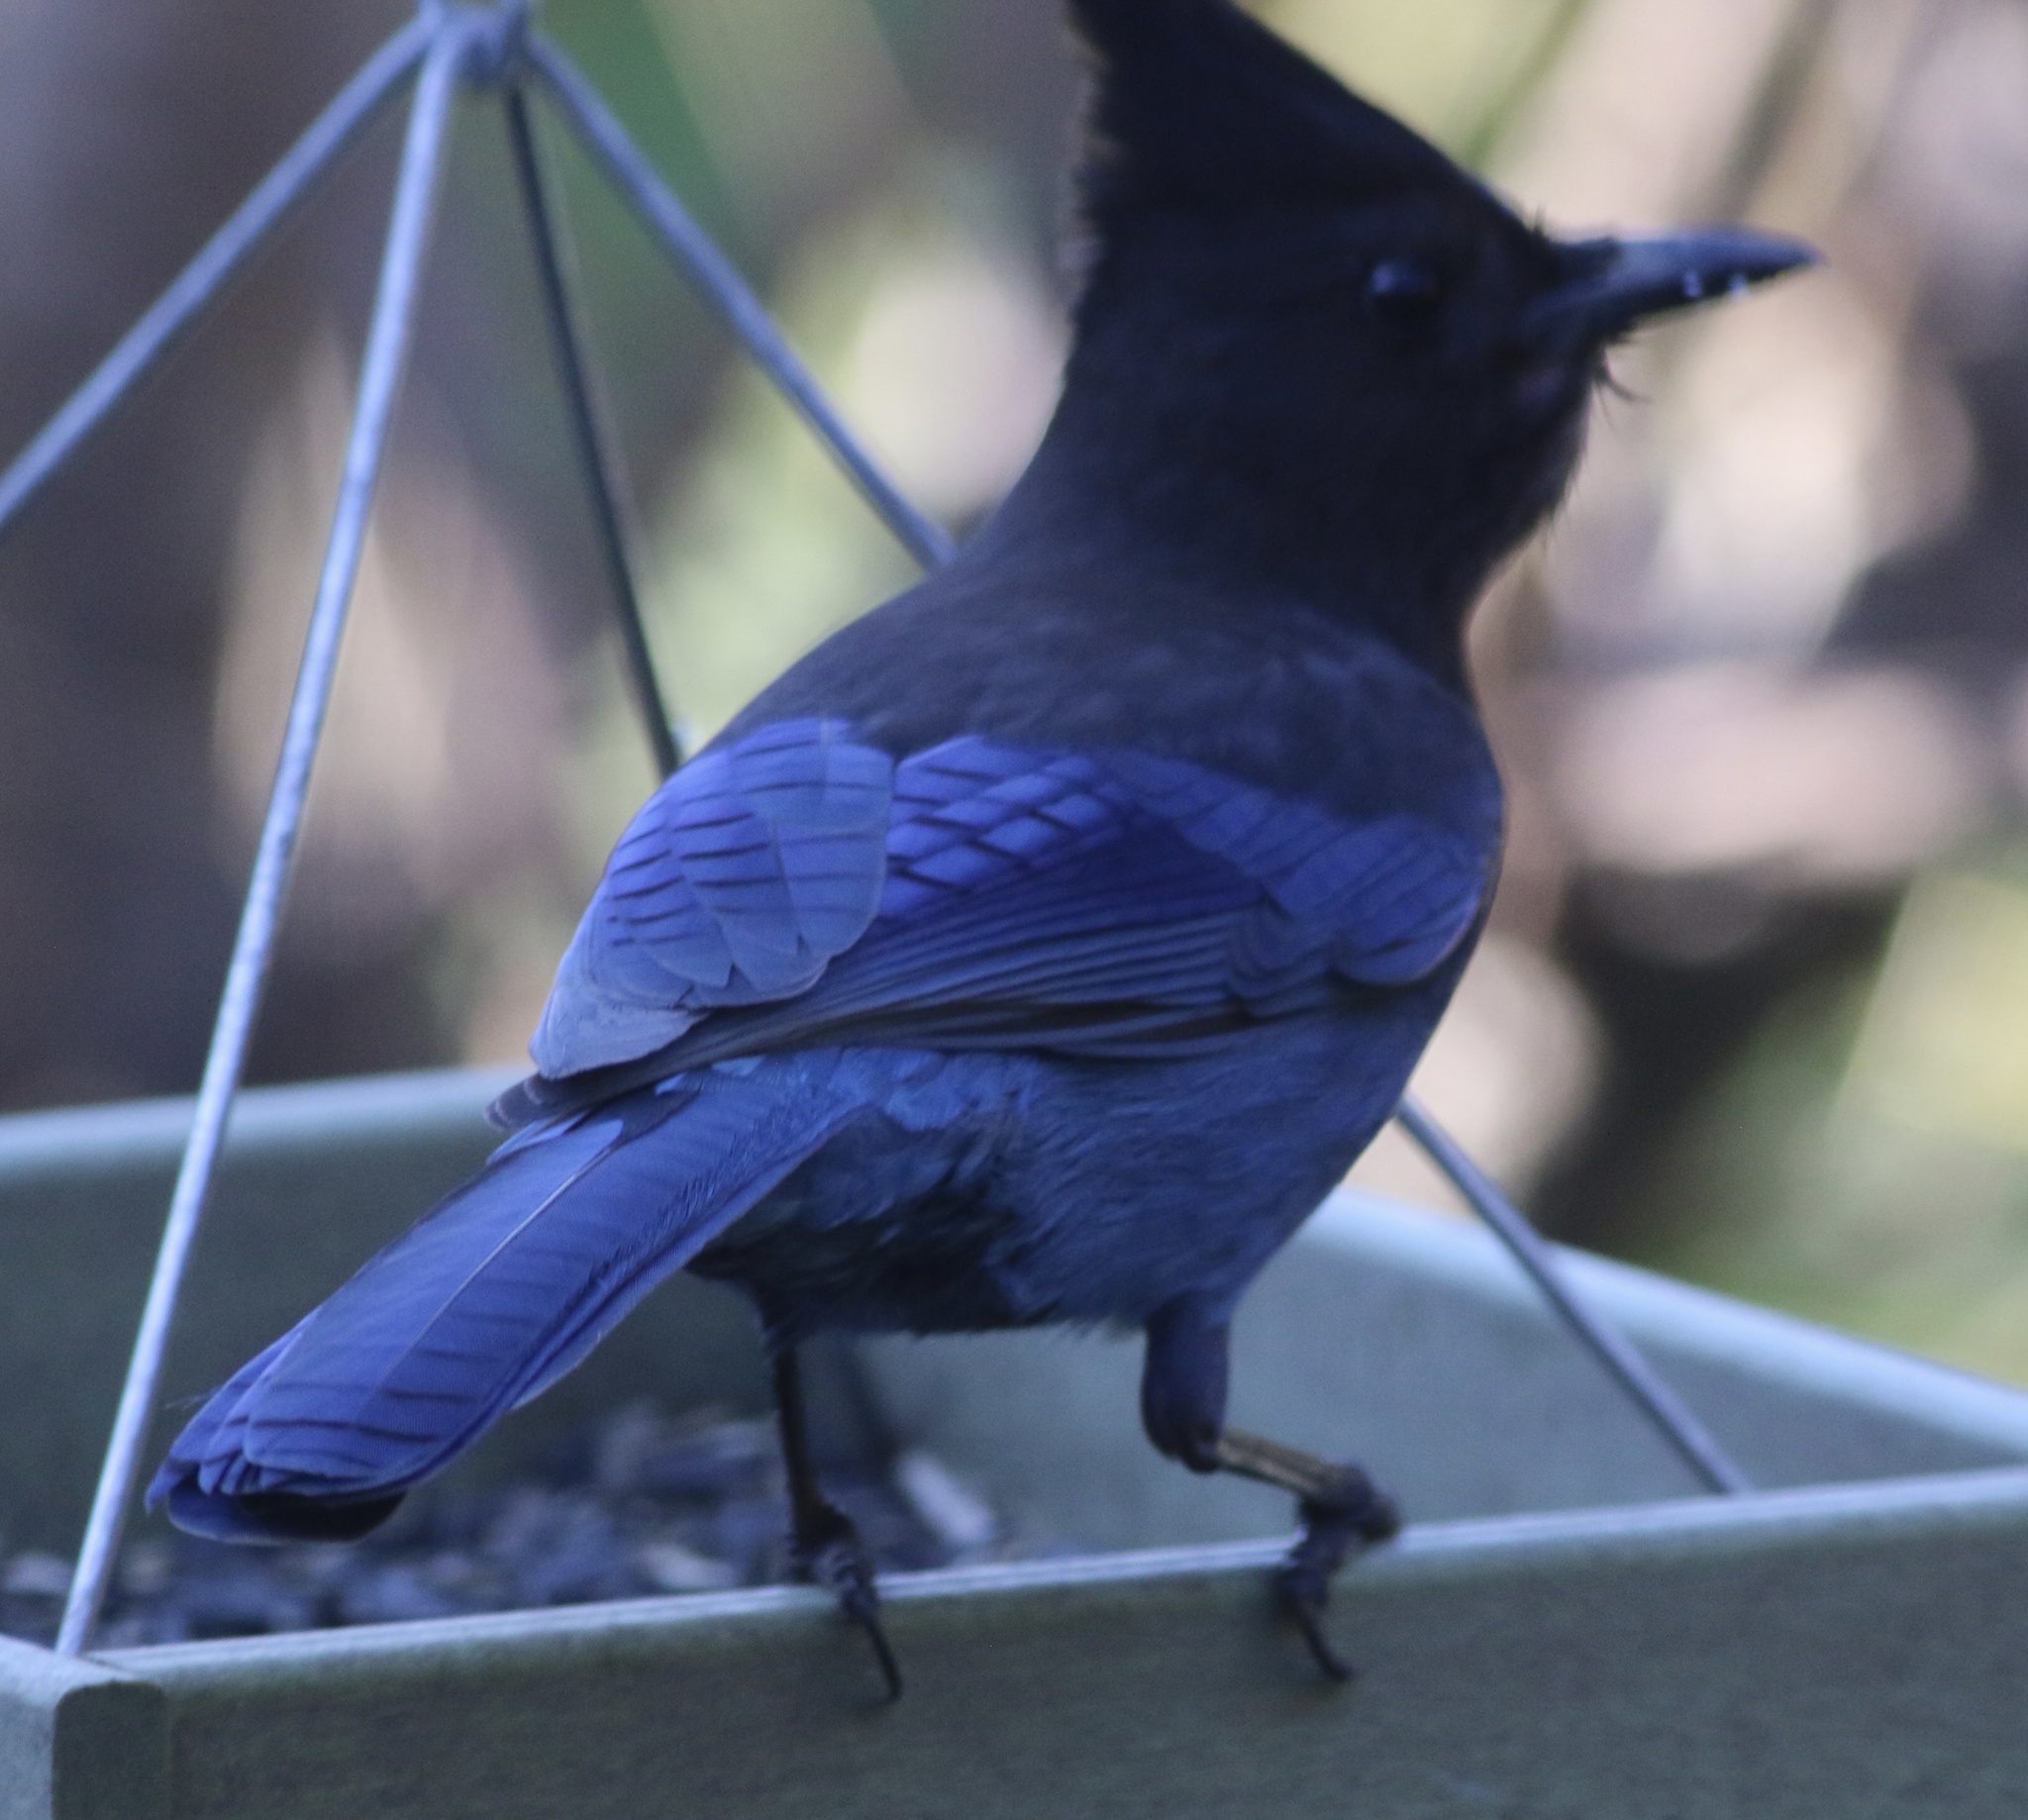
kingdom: Animalia
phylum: Chordata
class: Aves
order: Passeriformes
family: Corvidae
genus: Cyanocitta
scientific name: Cyanocitta stelleri
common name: Steller's jay
